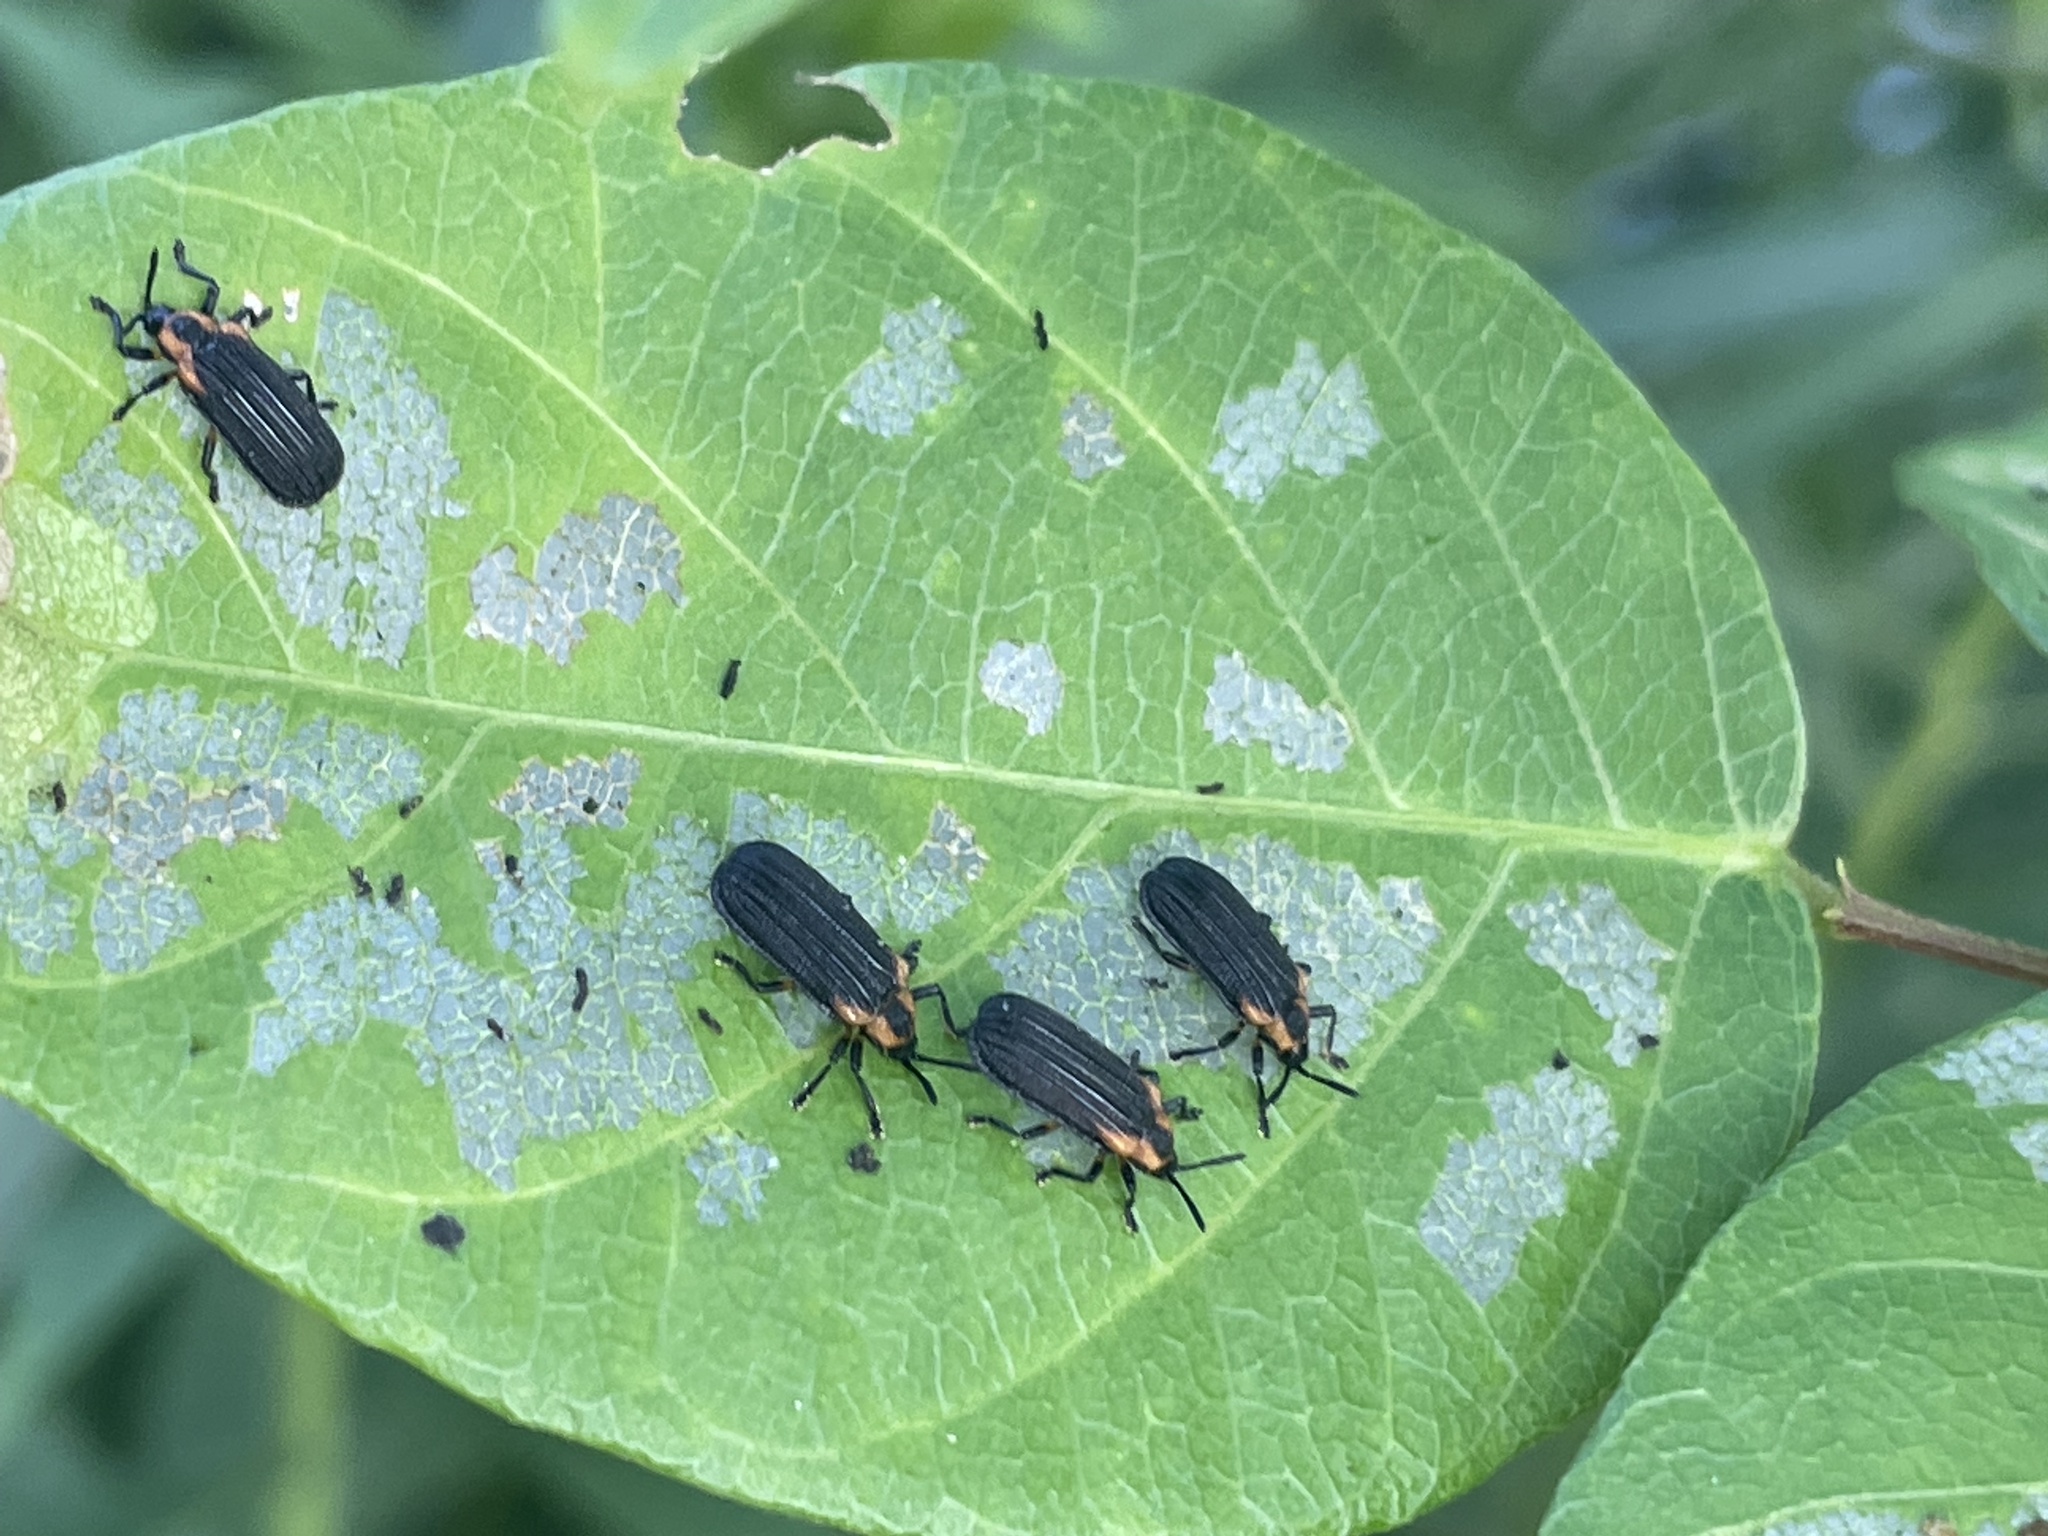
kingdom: Animalia
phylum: Arthropoda
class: Insecta
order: Coleoptera
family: Chrysomelidae
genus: Odontota
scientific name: Odontota scapularis
